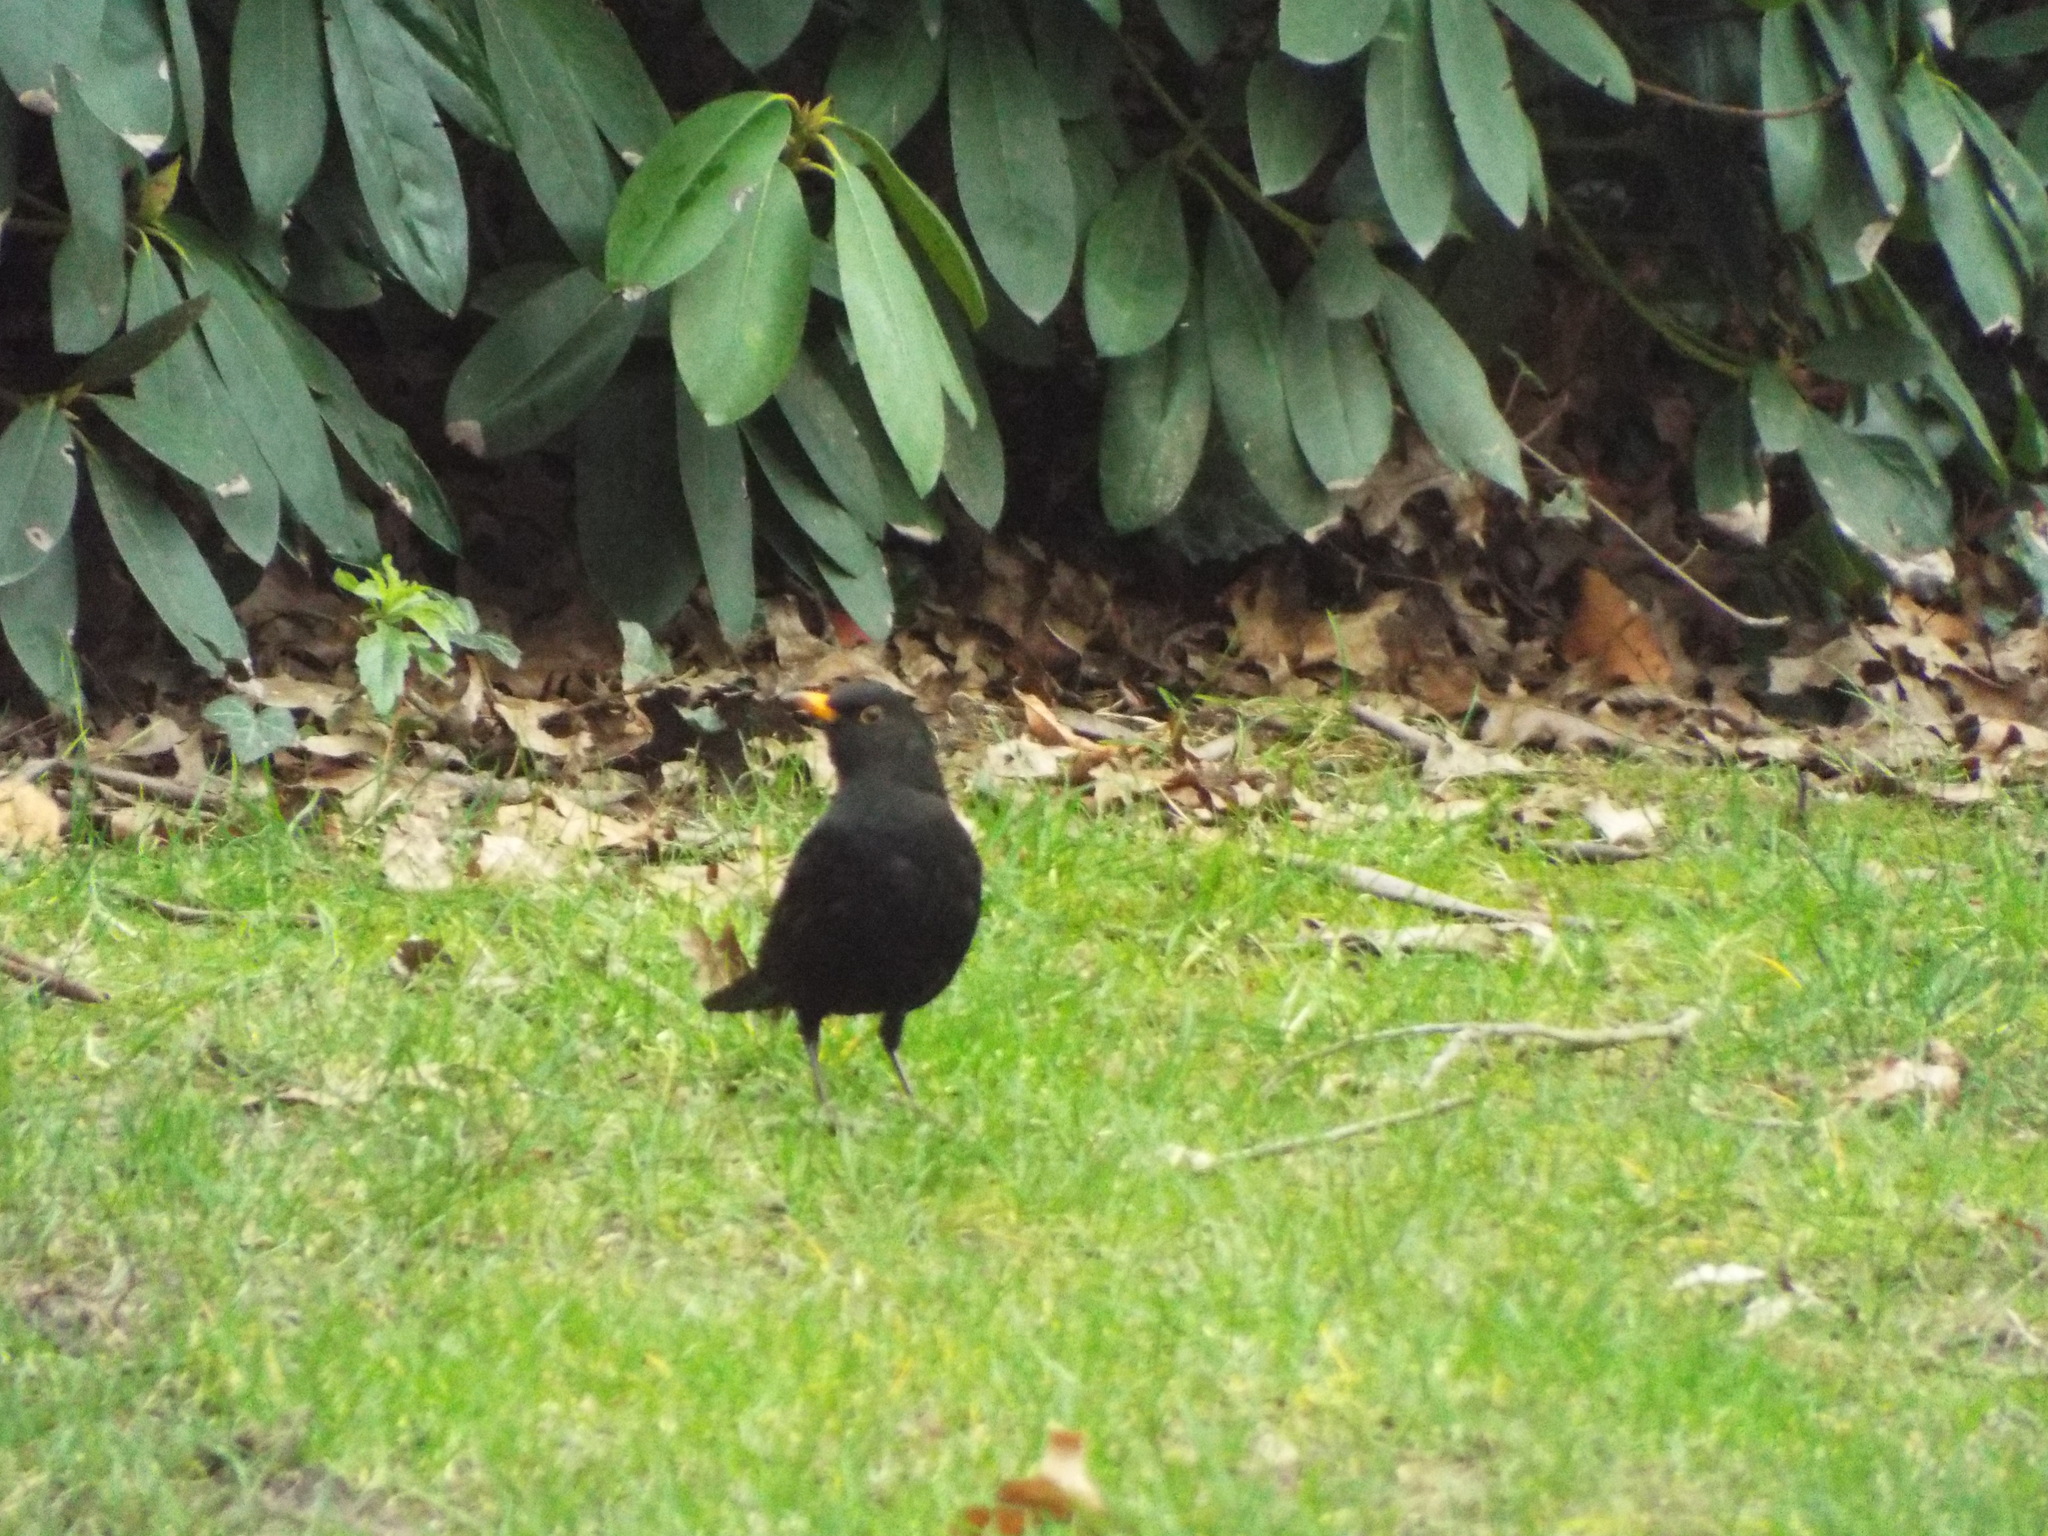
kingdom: Animalia
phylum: Chordata
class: Aves
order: Passeriformes
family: Turdidae
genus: Turdus
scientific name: Turdus merula
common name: Common blackbird
